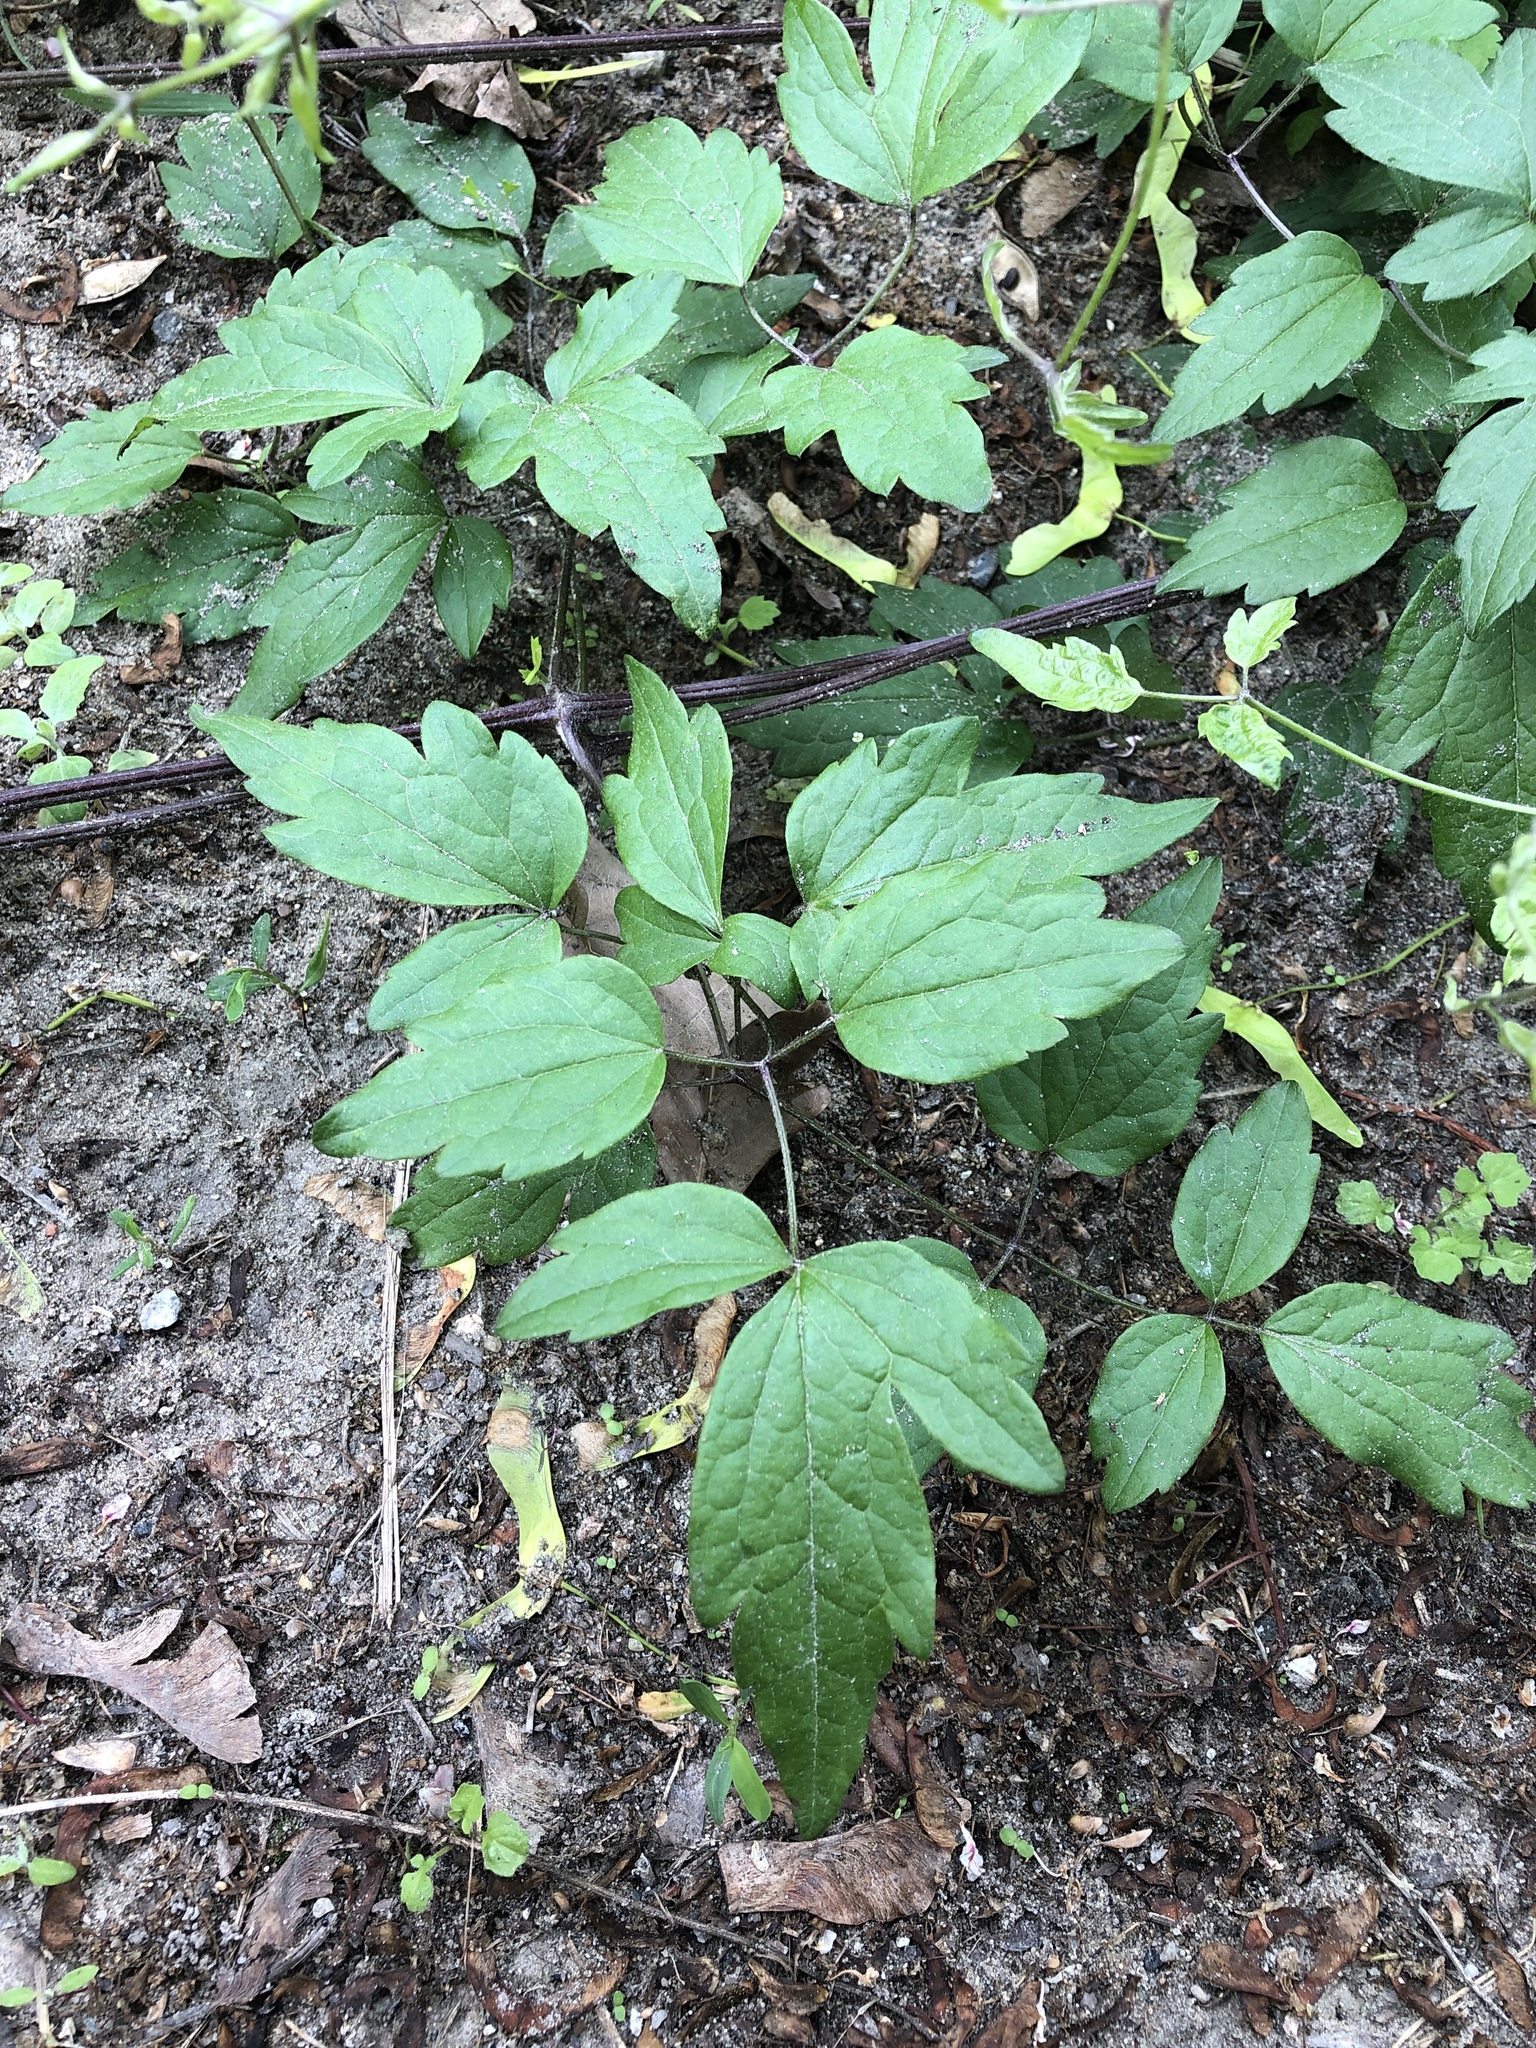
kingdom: Plantae
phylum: Tracheophyta
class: Magnoliopsida
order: Ranunculales
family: Ranunculaceae
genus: Clematis
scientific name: Clematis vitalba
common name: Evergreen clematis
